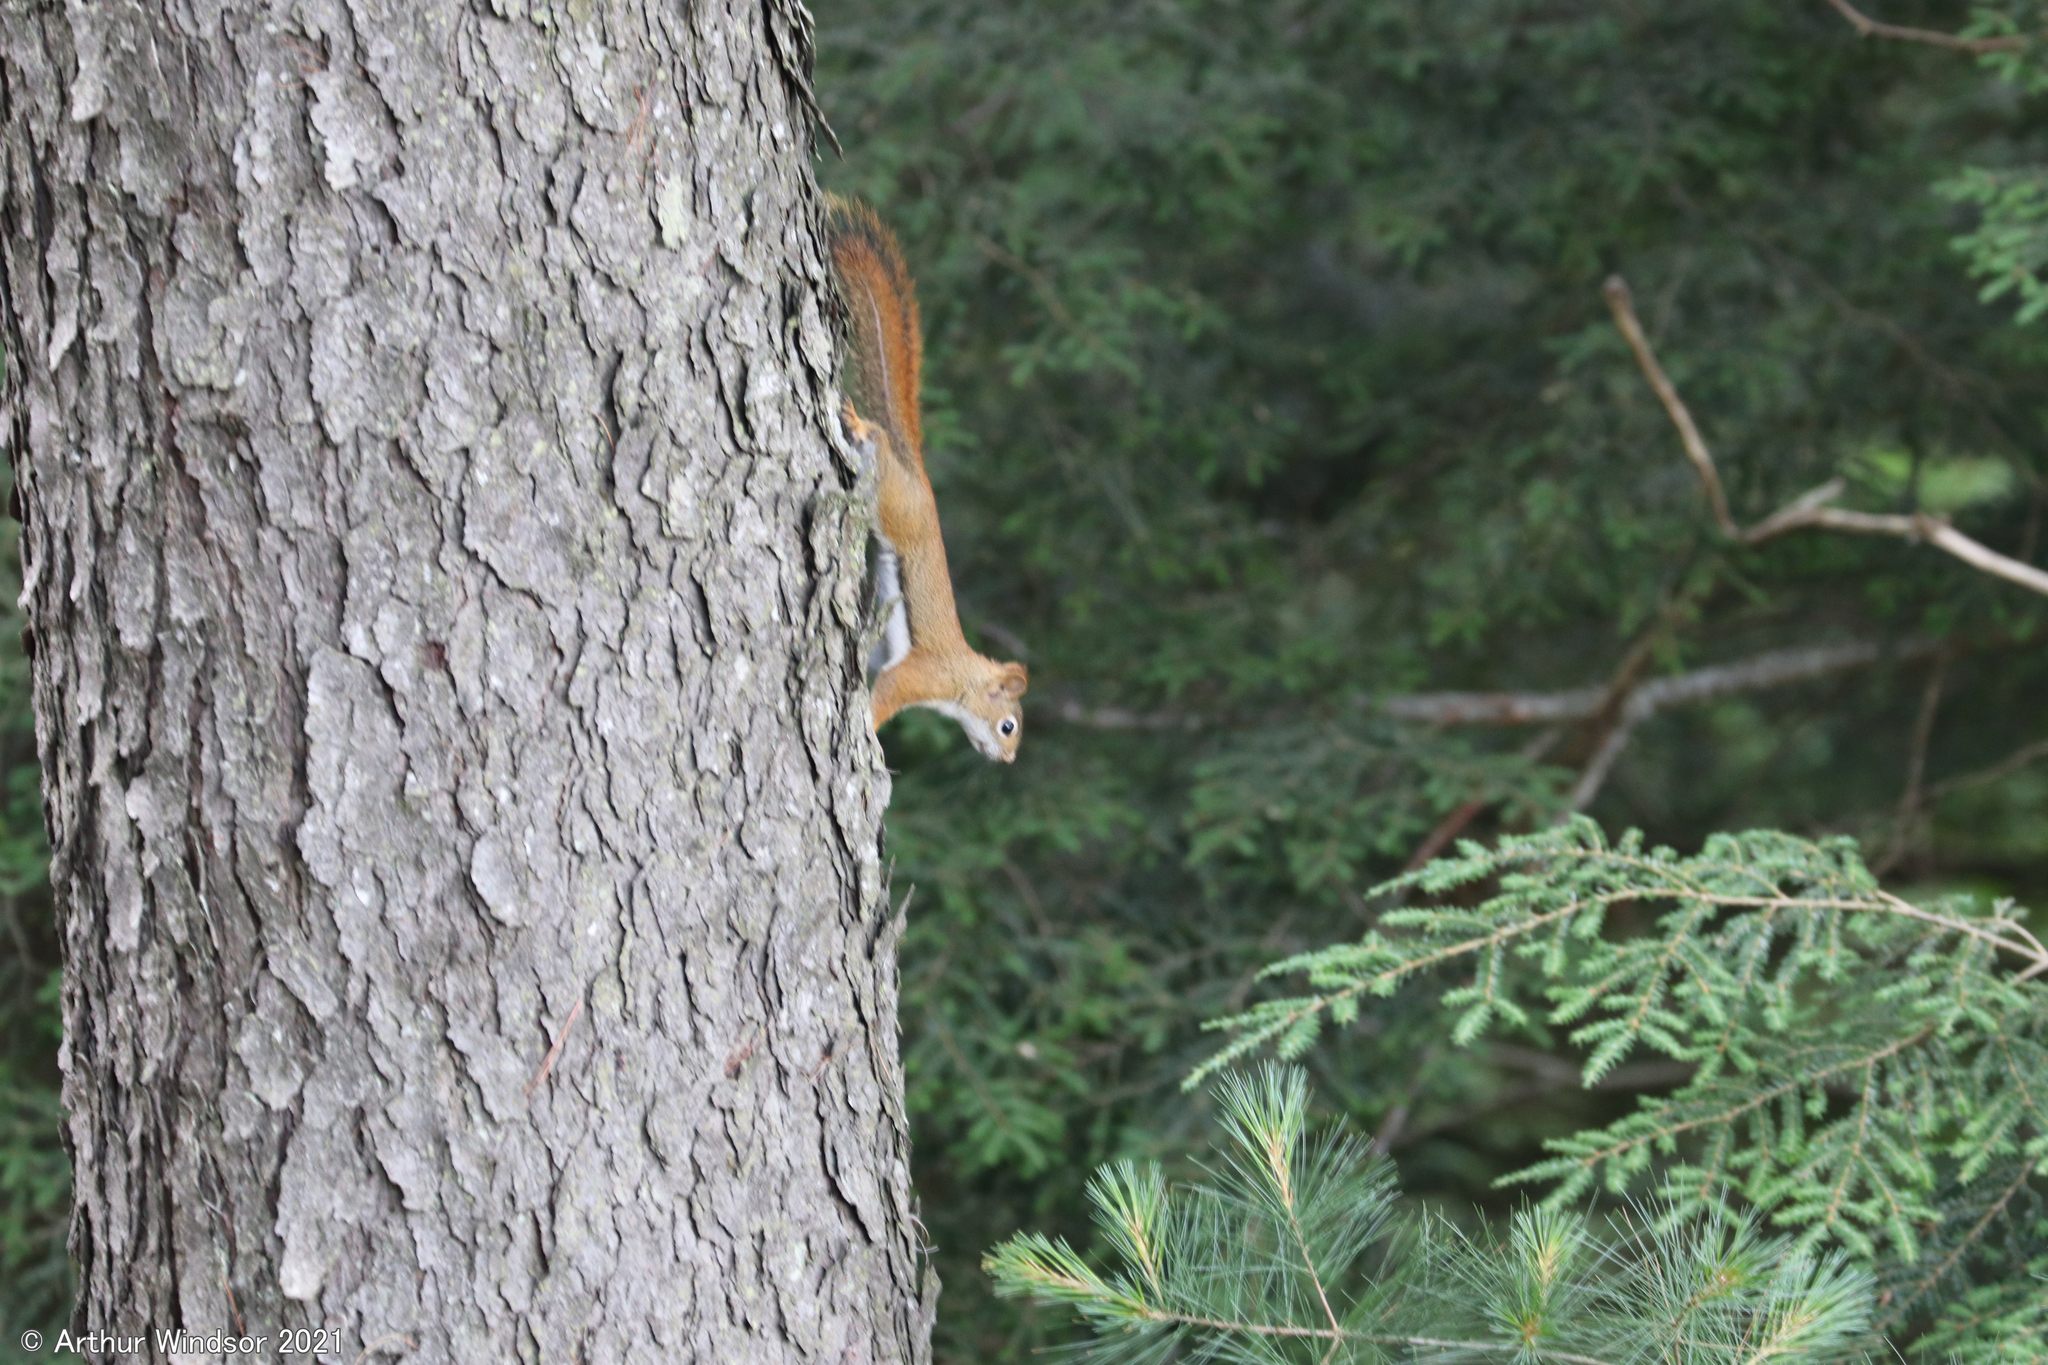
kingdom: Animalia
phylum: Chordata
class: Mammalia
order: Rodentia
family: Sciuridae
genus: Tamiasciurus
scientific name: Tamiasciurus hudsonicus
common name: Red squirrel
